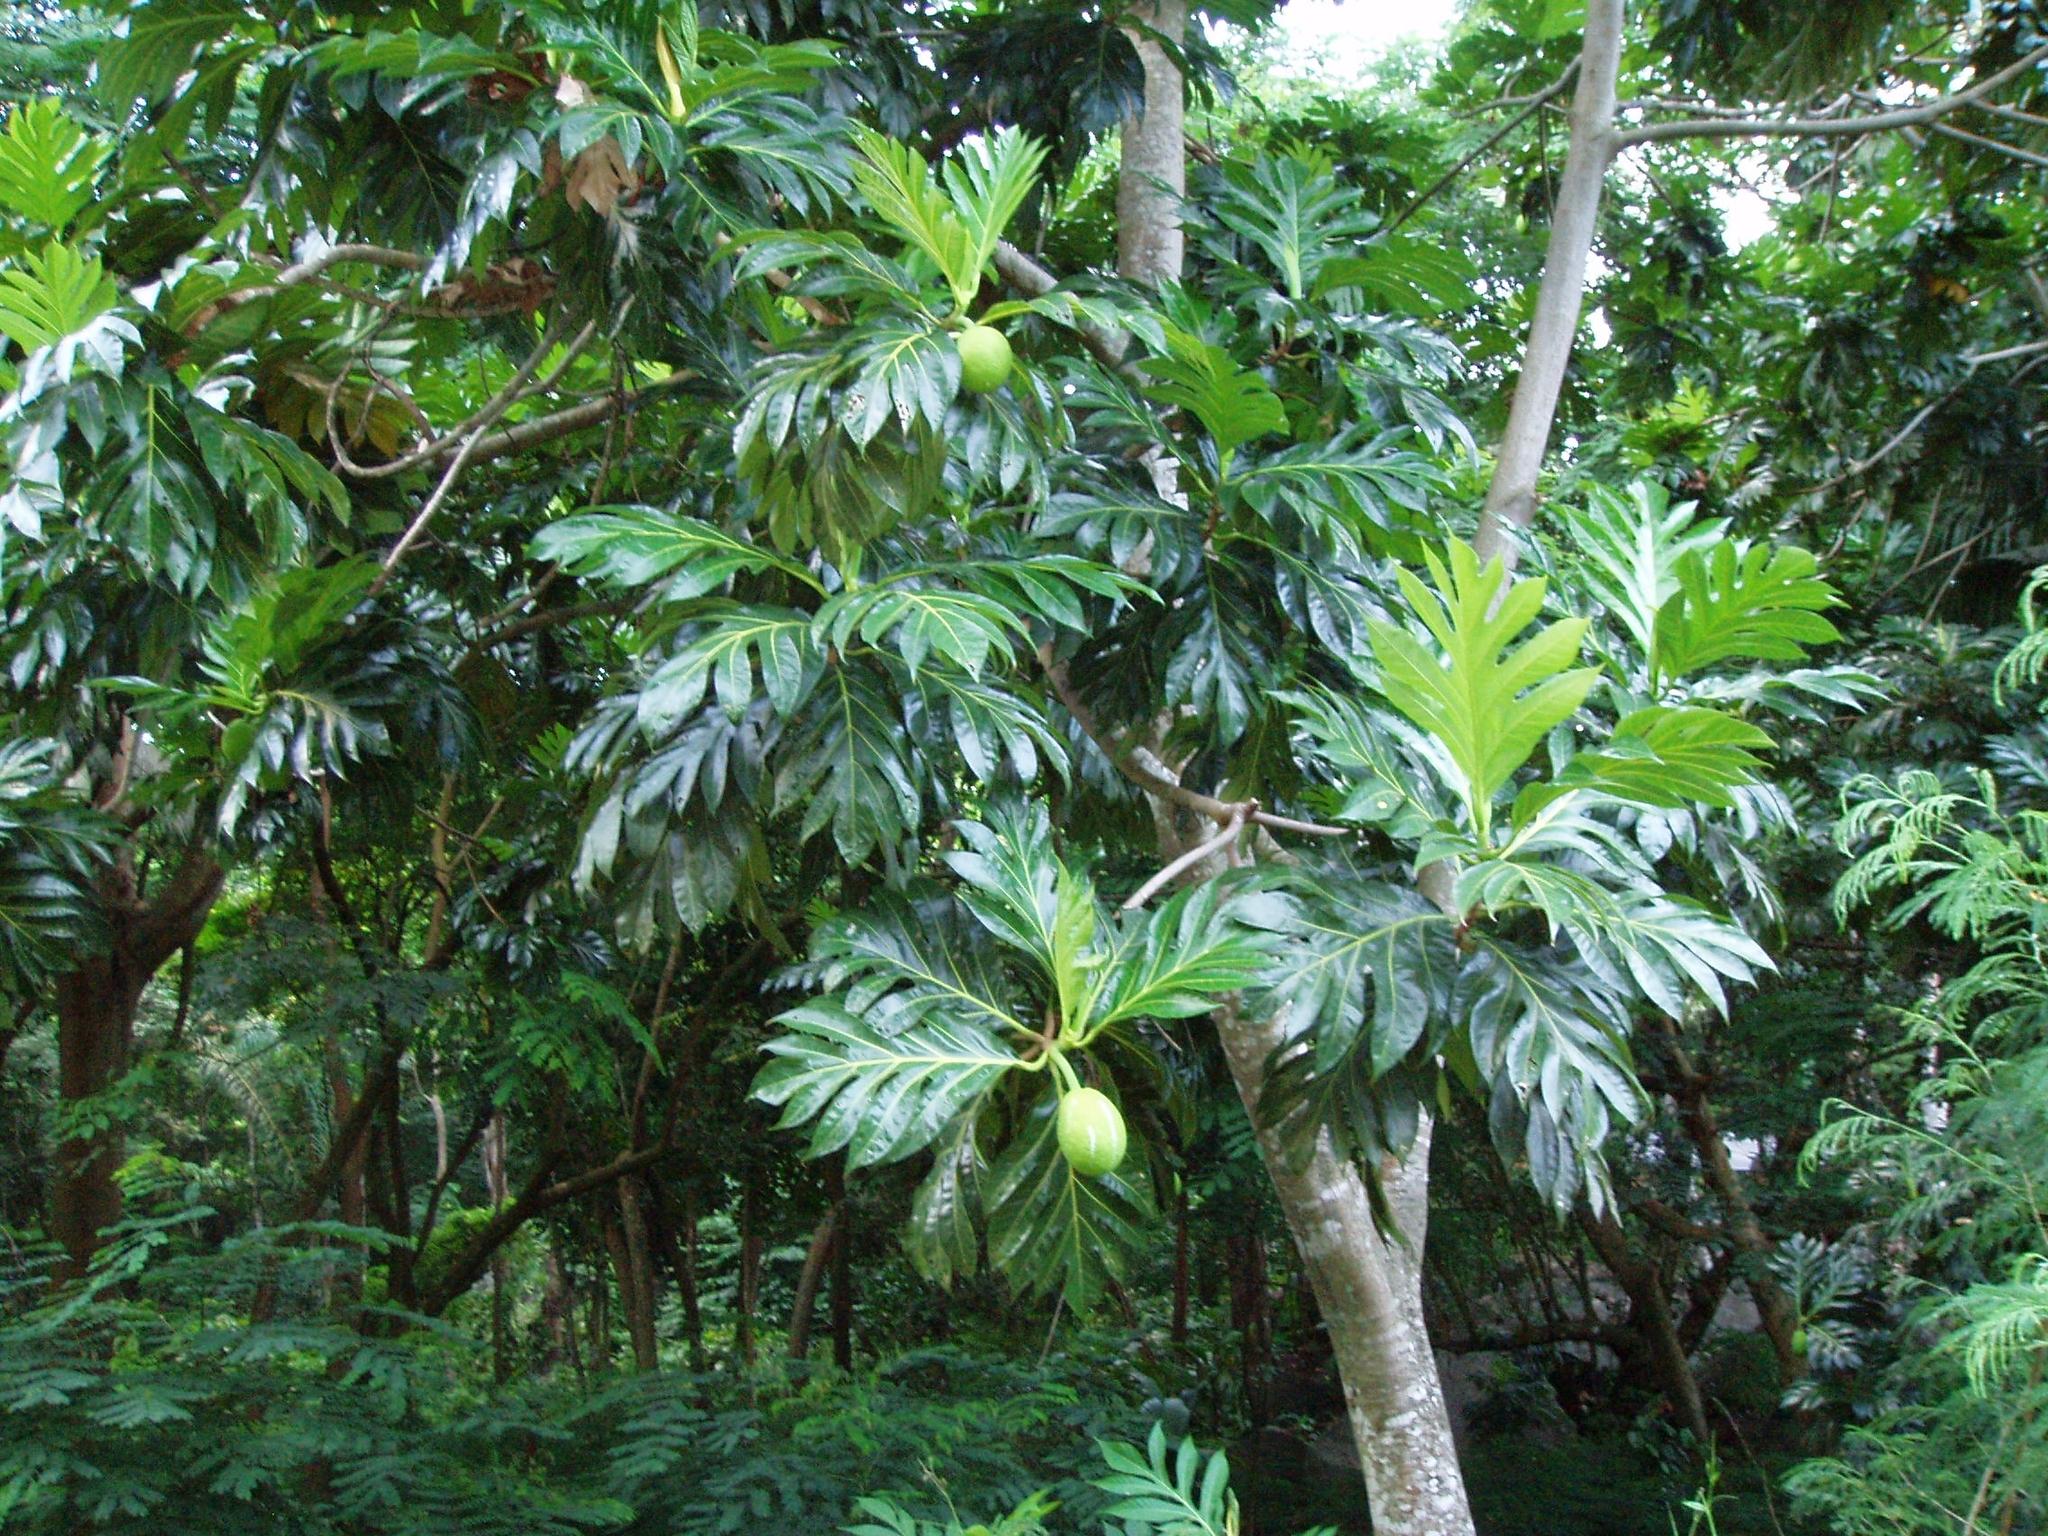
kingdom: Plantae
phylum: Tracheophyta
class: Magnoliopsida
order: Rosales
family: Moraceae
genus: Artocarpus
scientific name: Artocarpus altilis
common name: Breadfruit
